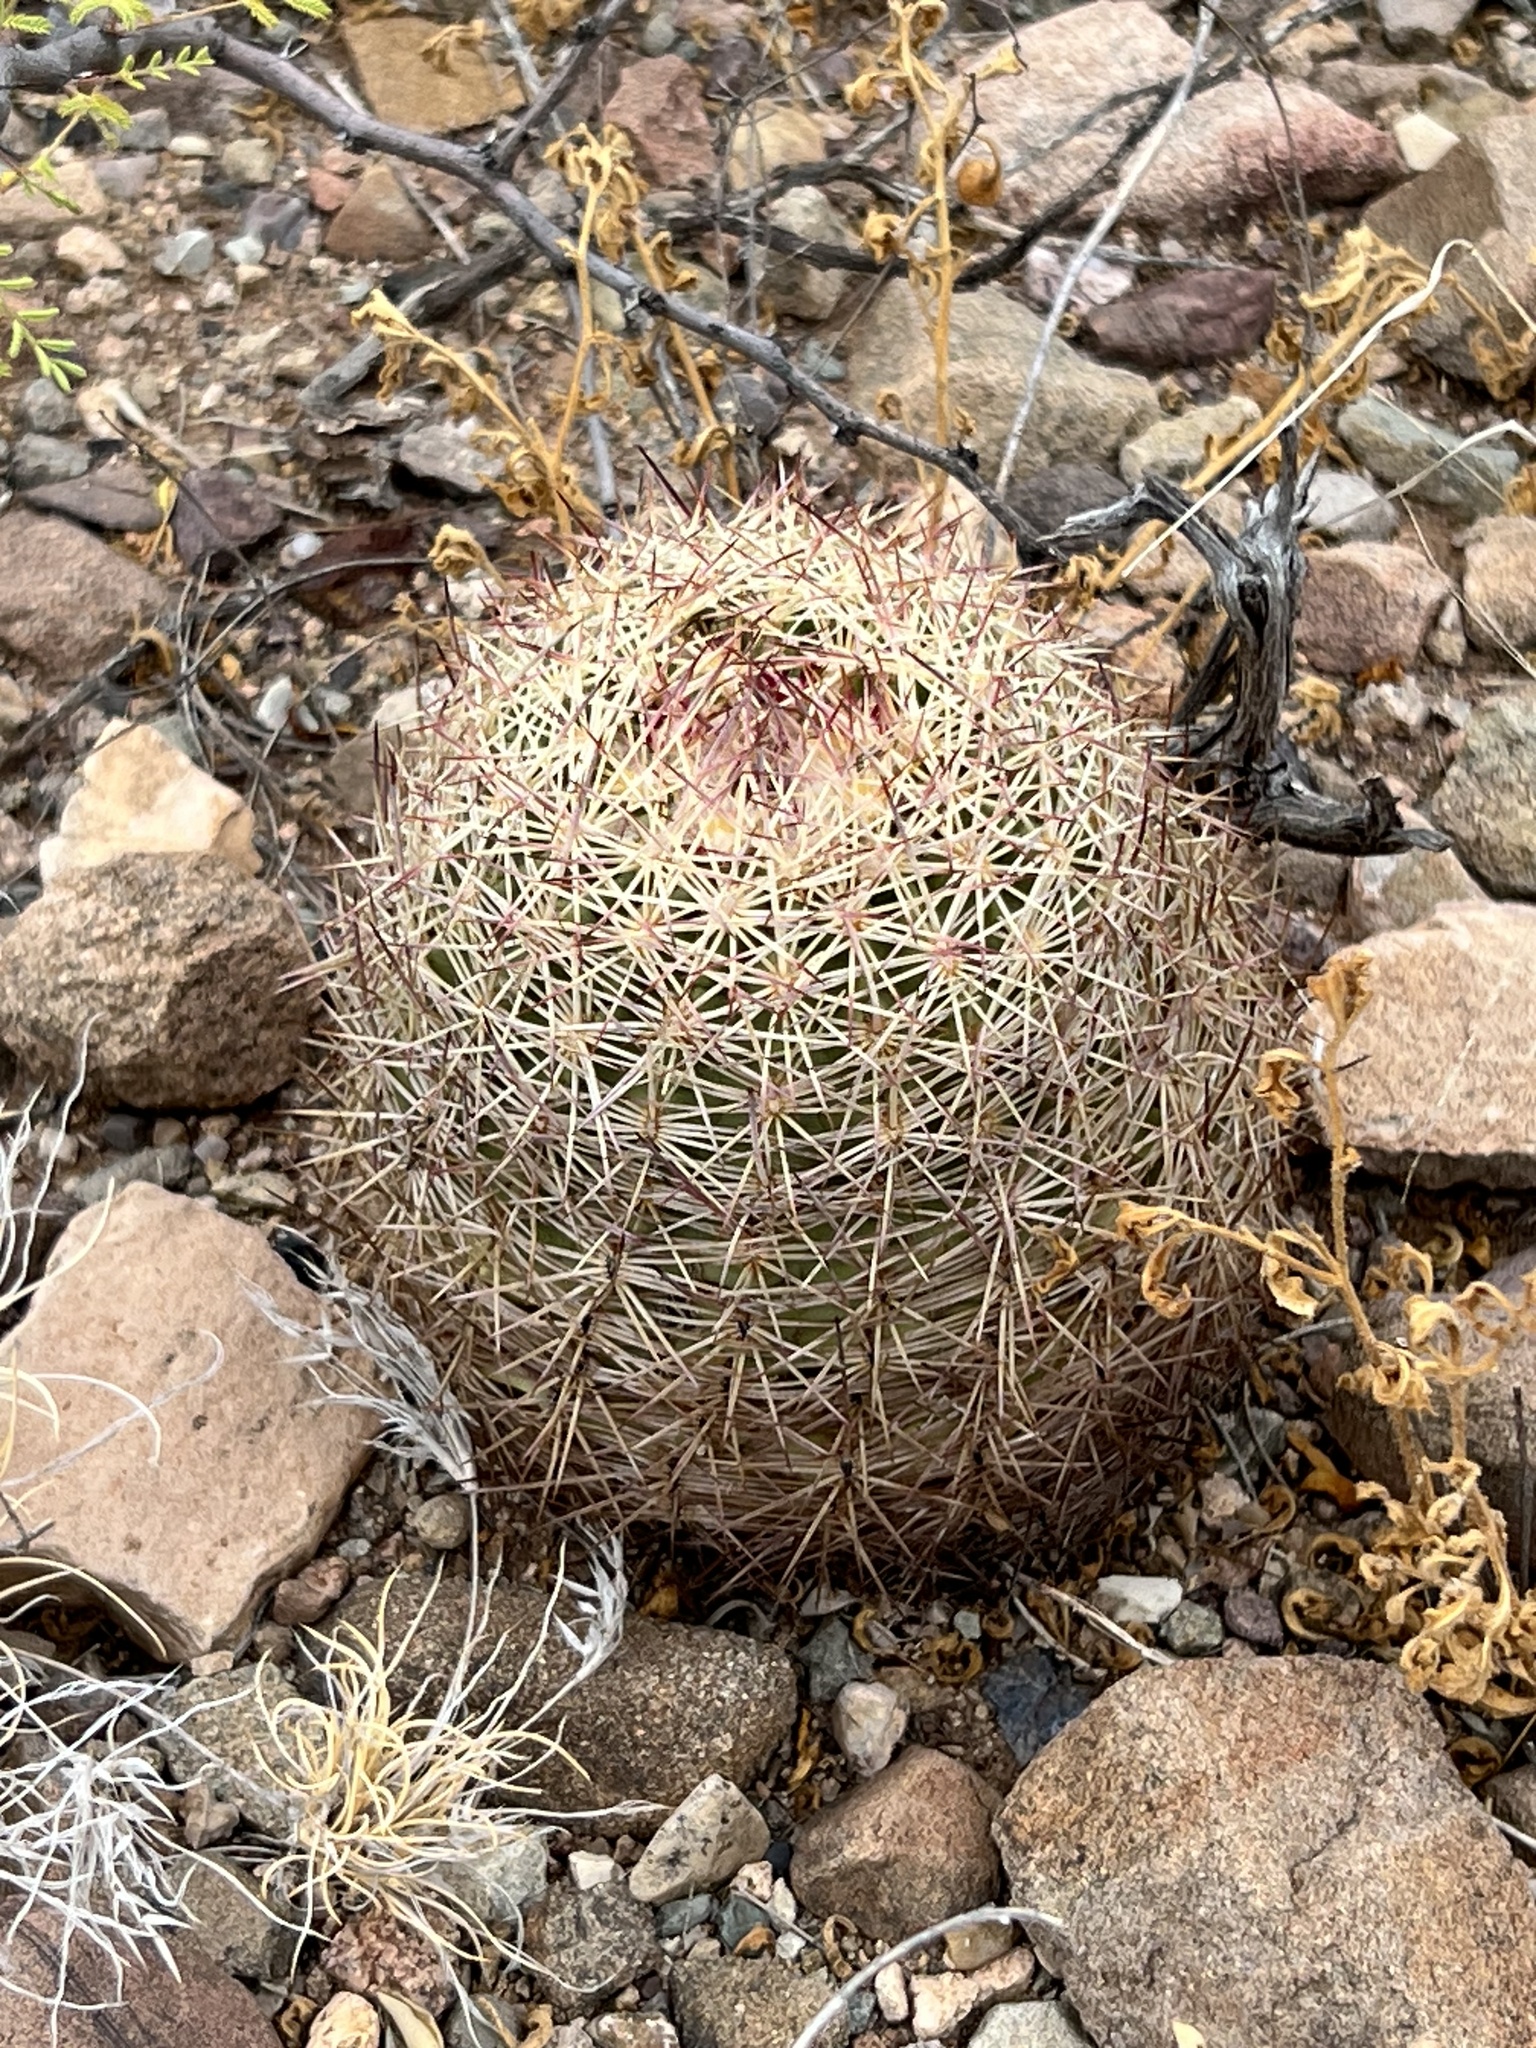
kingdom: Plantae
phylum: Tracheophyta
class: Magnoliopsida
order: Caryophyllales
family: Cactaceae
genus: Sclerocactus
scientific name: Sclerocactus johnsonii
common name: Eight-spine fishhook cactus
